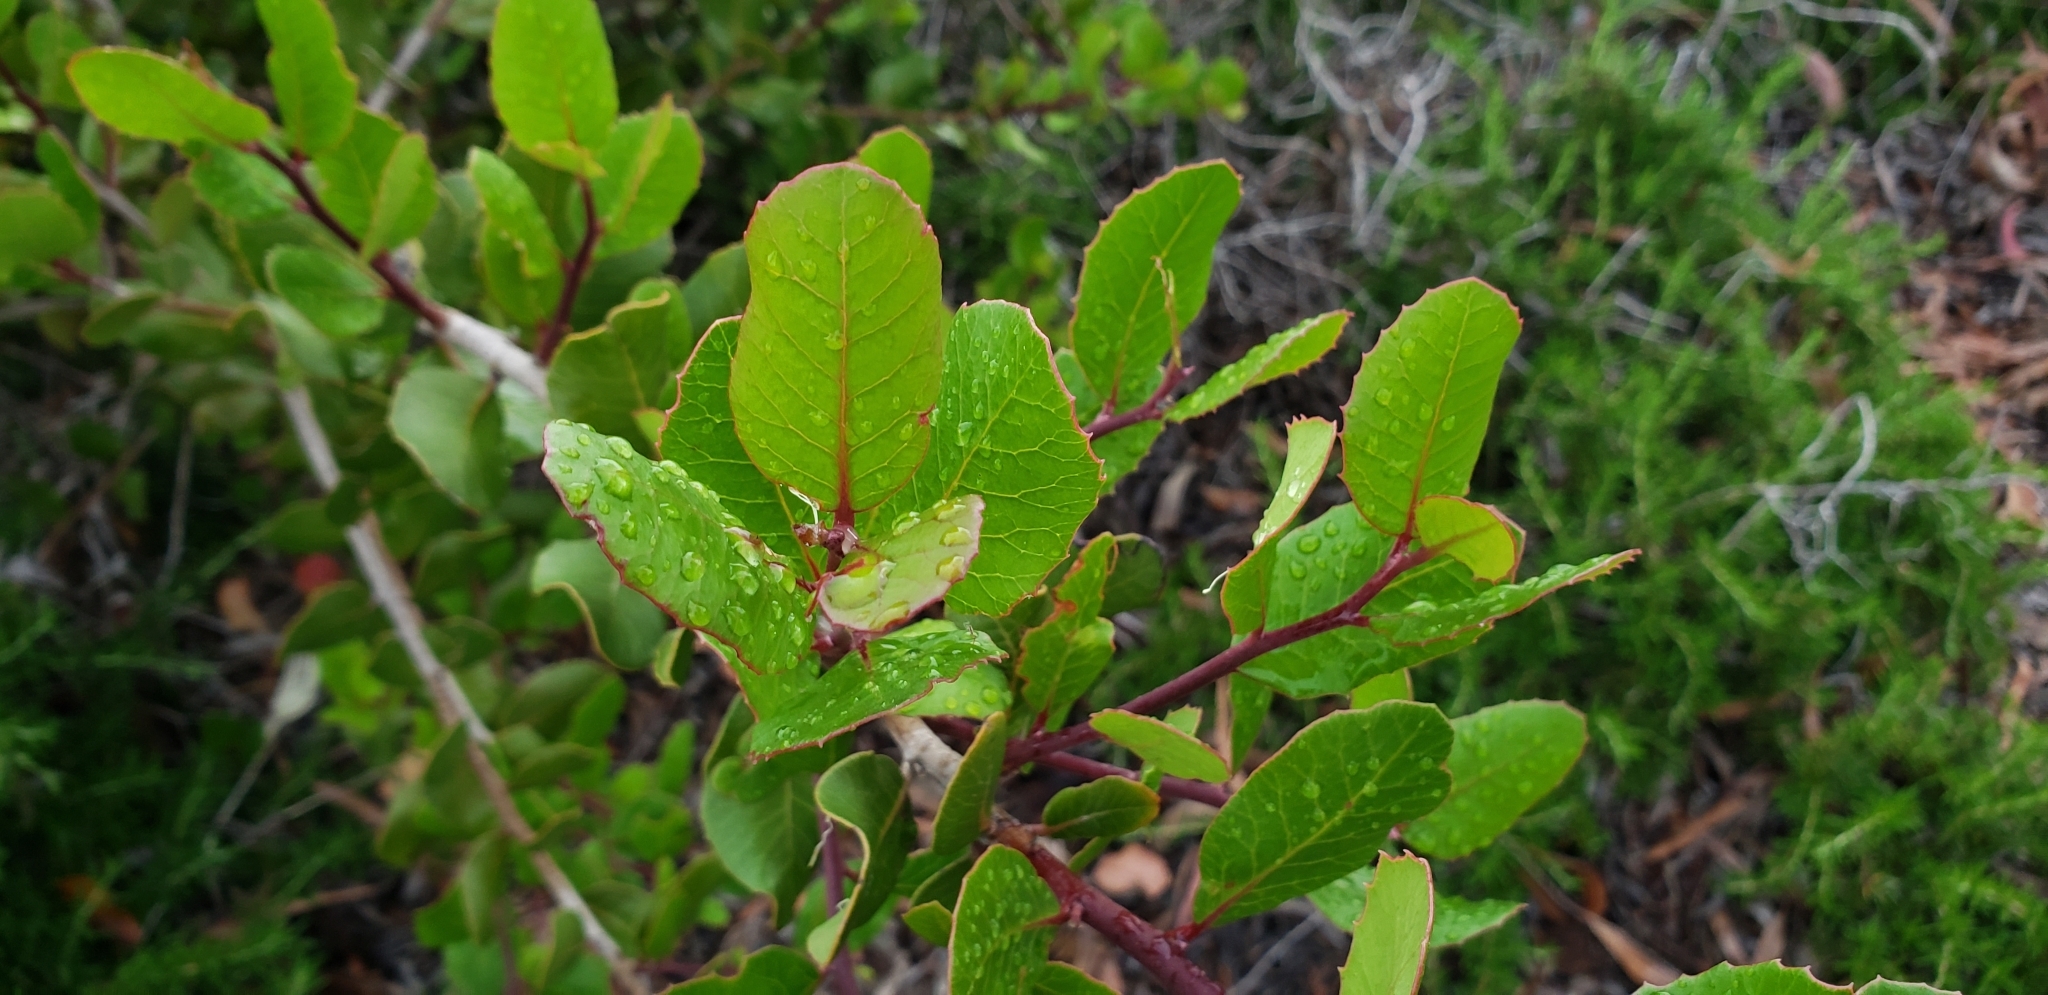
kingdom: Plantae
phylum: Tracheophyta
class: Magnoliopsida
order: Sapindales
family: Anacardiaceae
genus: Rhus
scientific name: Rhus integrifolia
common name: Lemonade sumac
